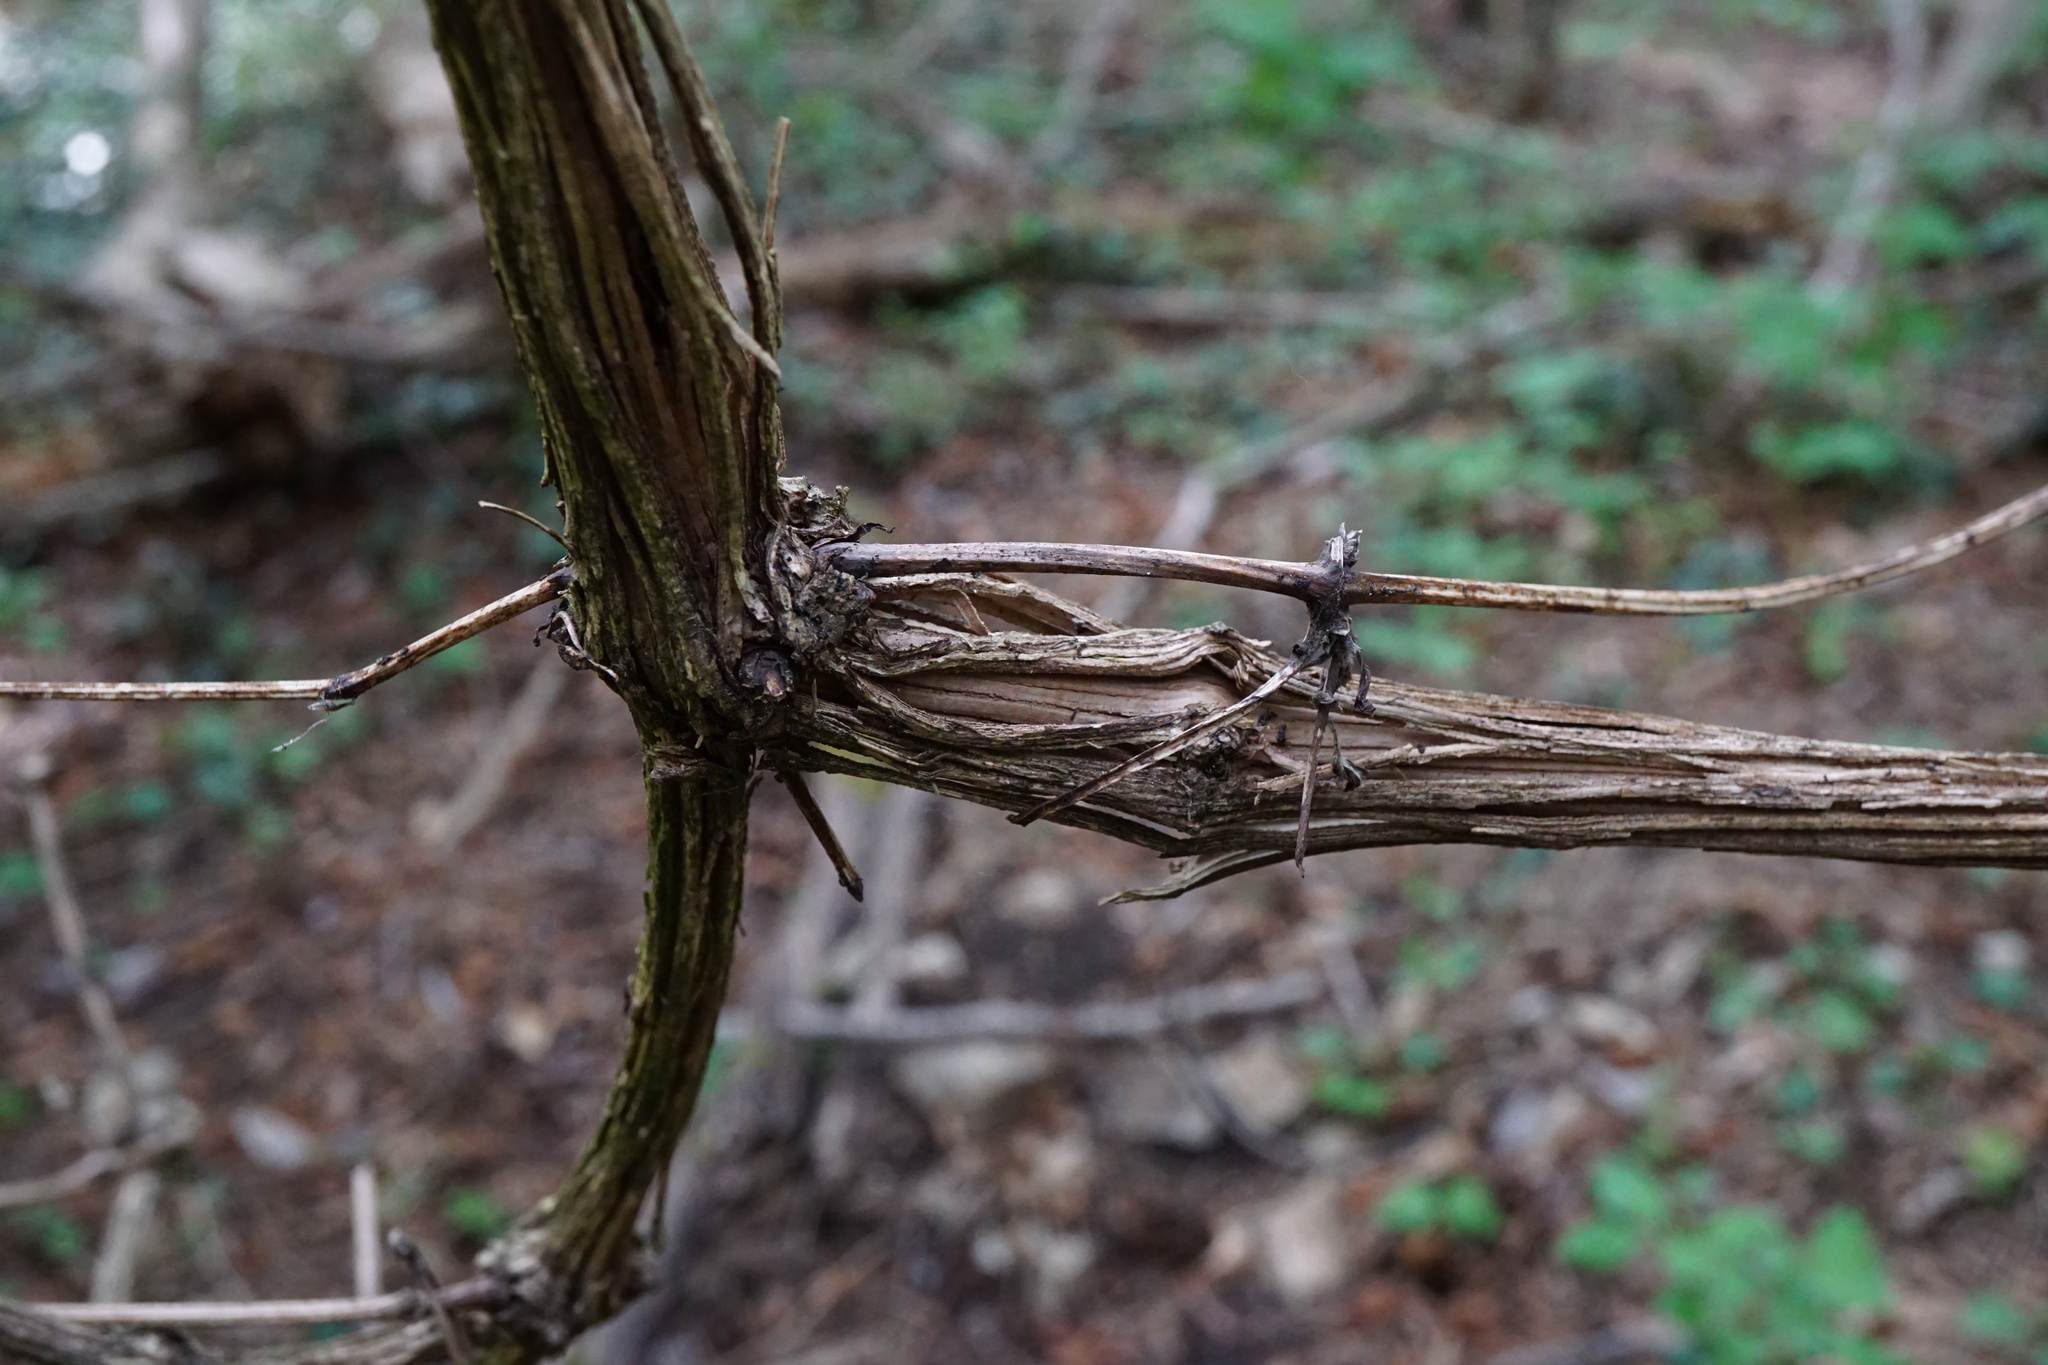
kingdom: Plantae
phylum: Tracheophyta
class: Magnoliopsida
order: Ranunculales
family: Ranunculaceae
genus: Clematis
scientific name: Clematis vitalba
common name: Evergreen clematis
